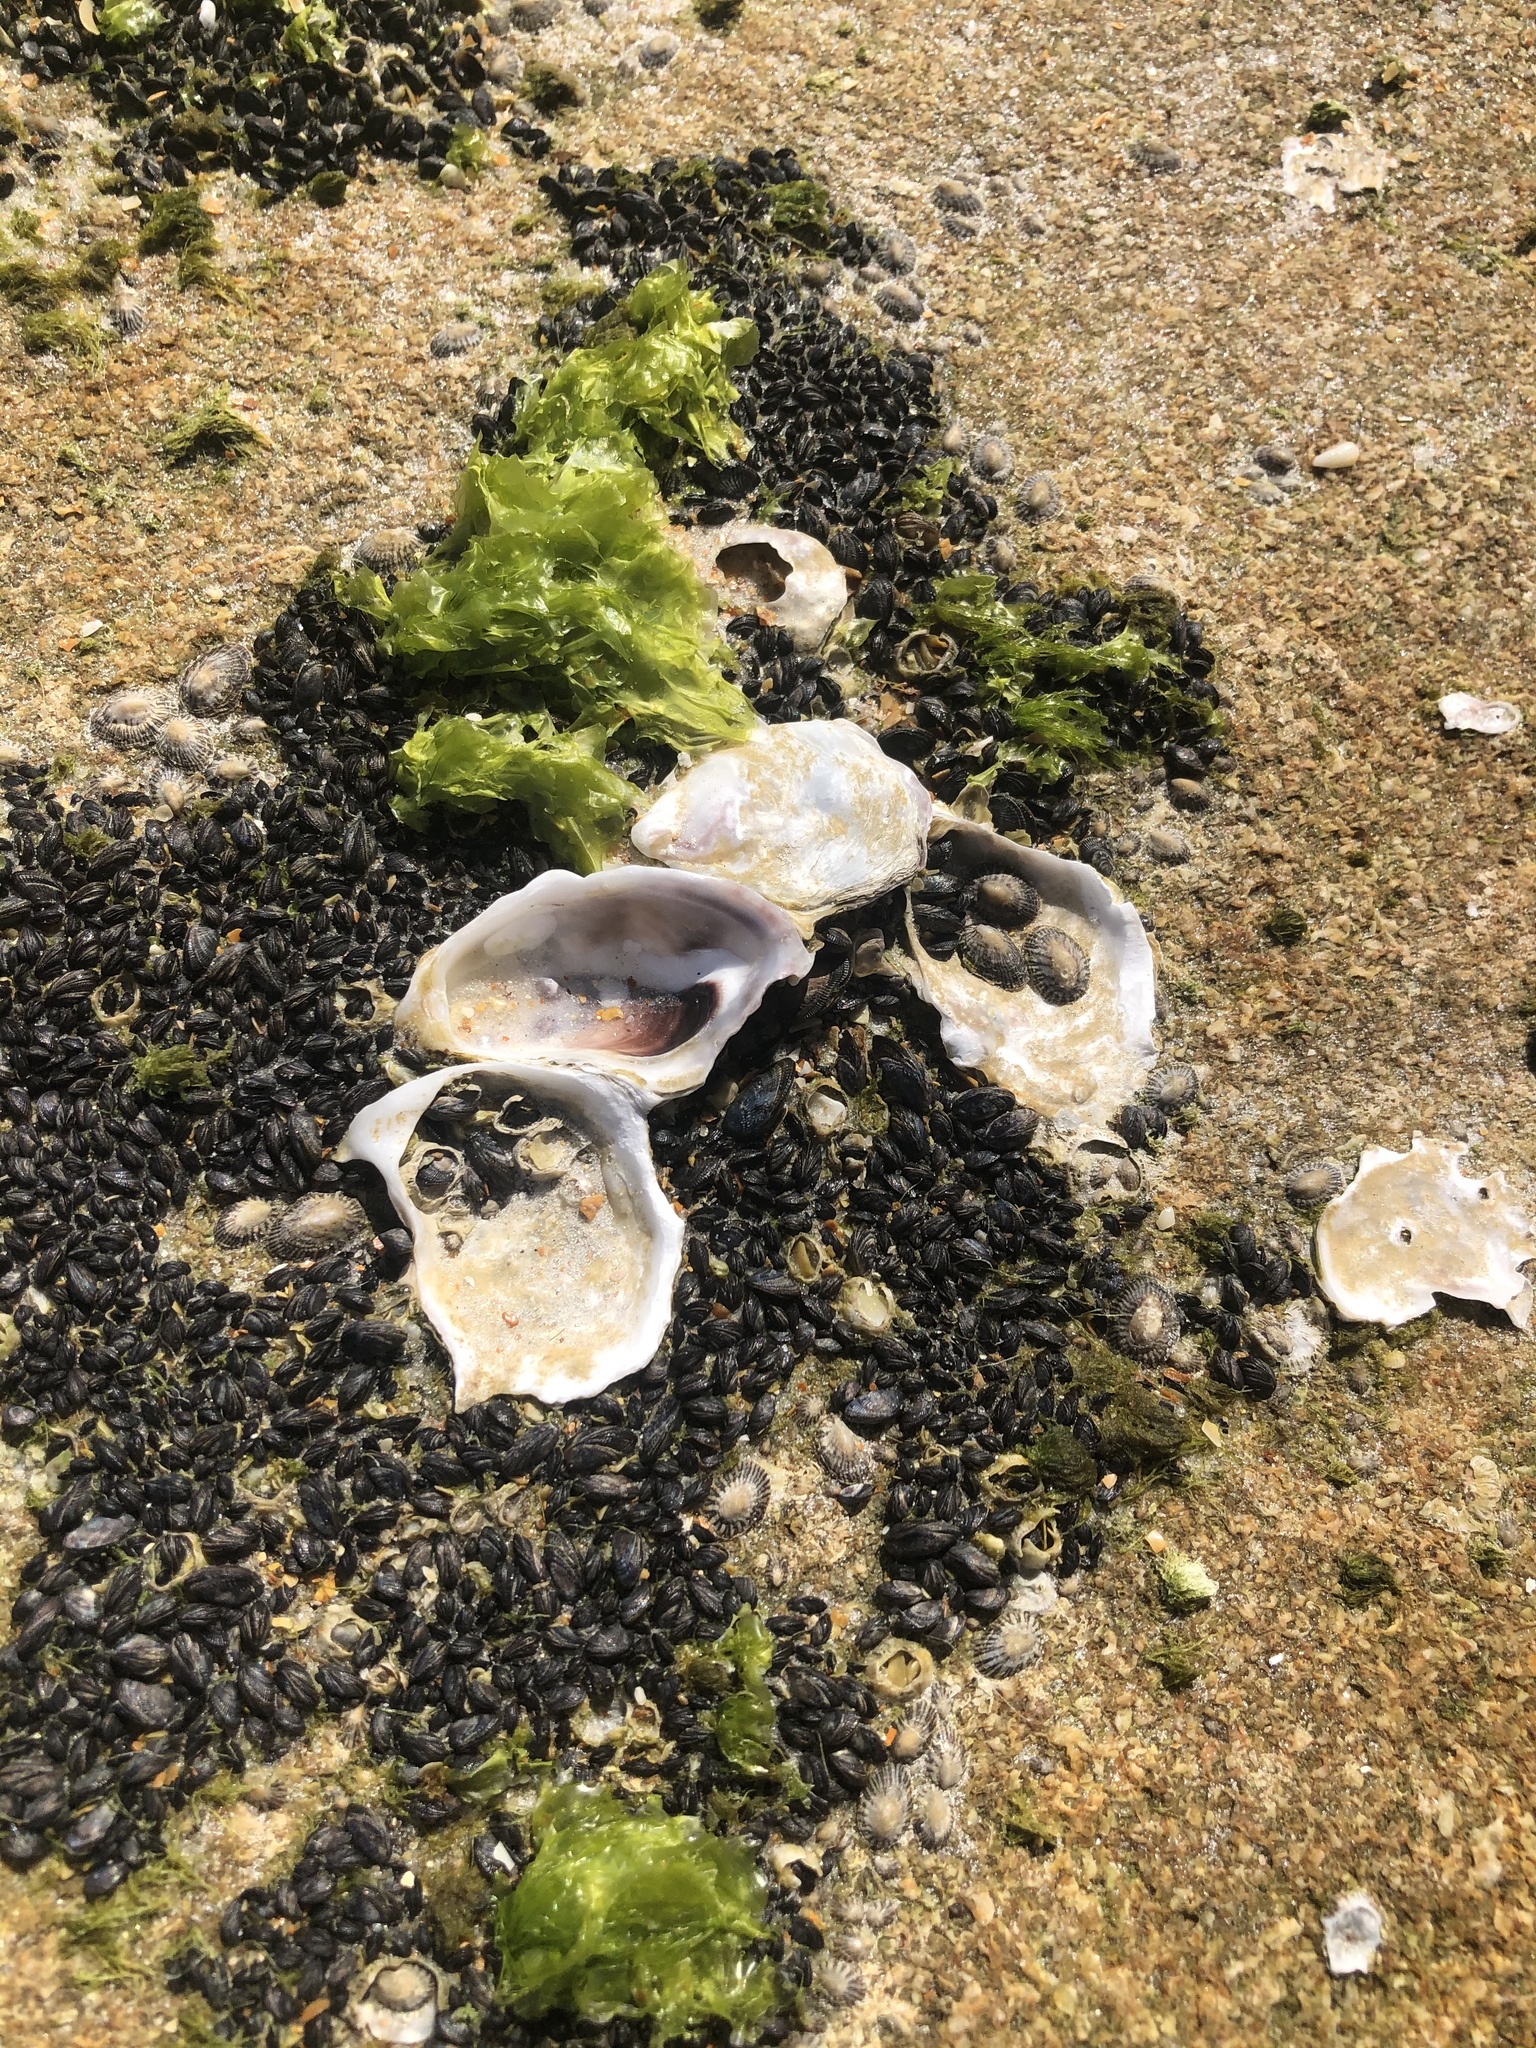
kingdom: Animalia
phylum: Mollusca
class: Bivalvia
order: Ostreida
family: Ostreidae
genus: Crassostrea
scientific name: Crassostrea virginica
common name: American oyster
